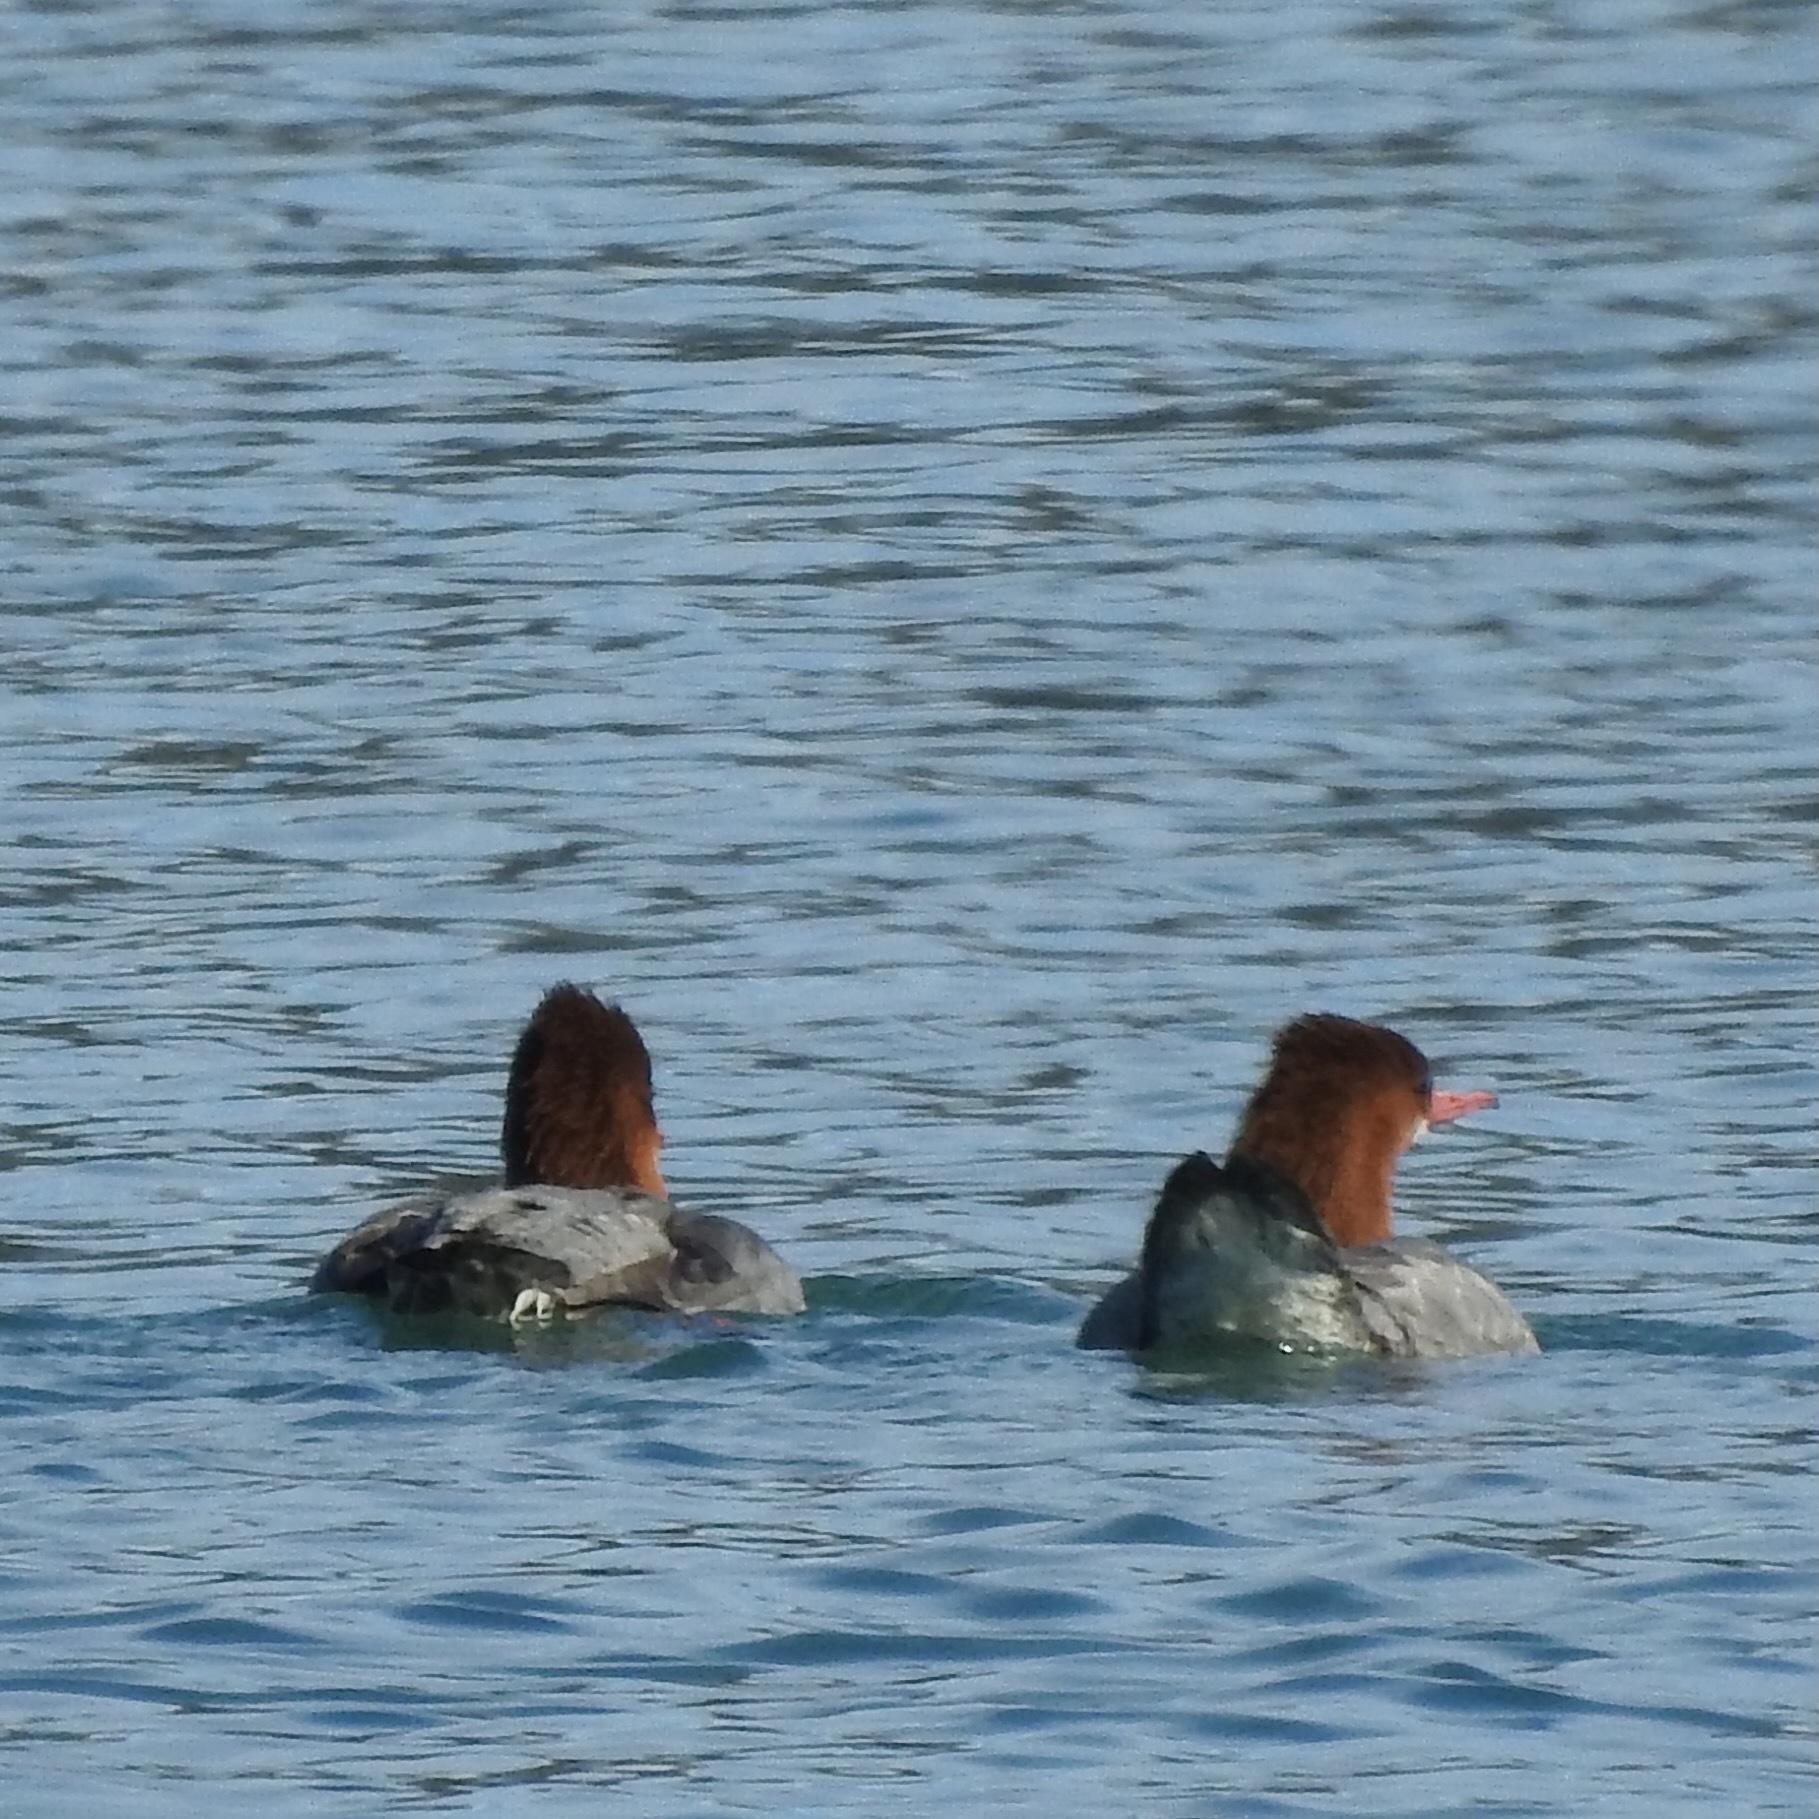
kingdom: Animalia
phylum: Chordata
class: Aves
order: Anseriformes
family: Anatidae
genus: Mergus
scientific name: Mergus merganser
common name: Common merganser
